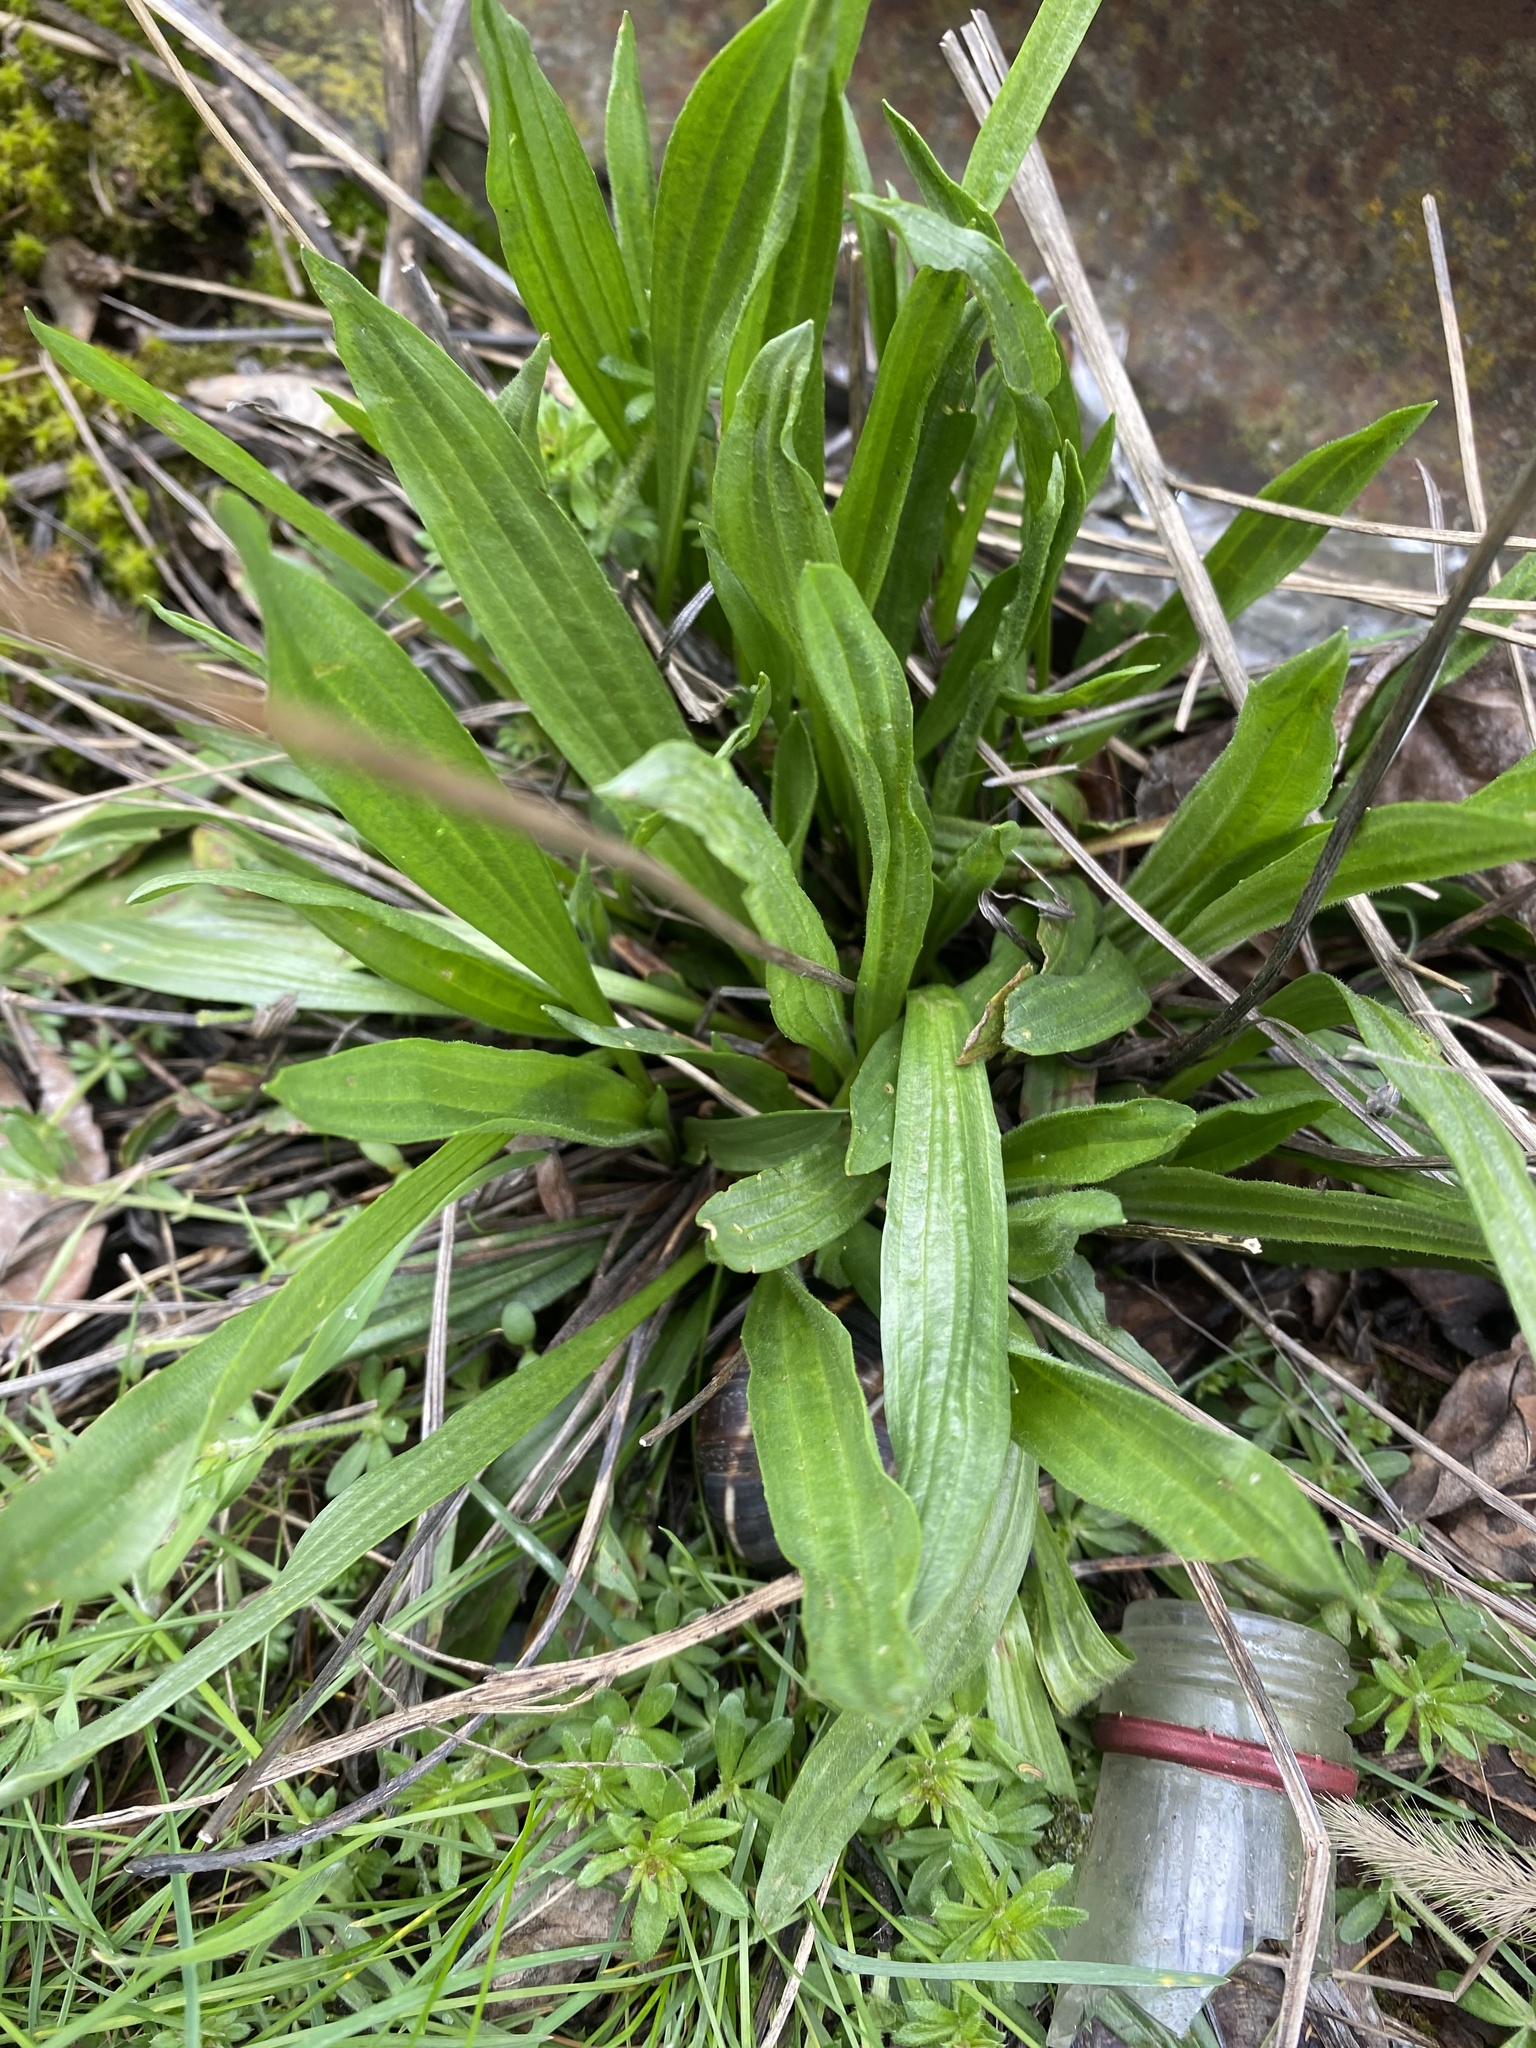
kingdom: Plantae
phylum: Tracheophyta
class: Magnoliopsida
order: Lamiales
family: Plantaginaceae
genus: Plantago
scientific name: Plantago lanceolata
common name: Ribwort plantain
